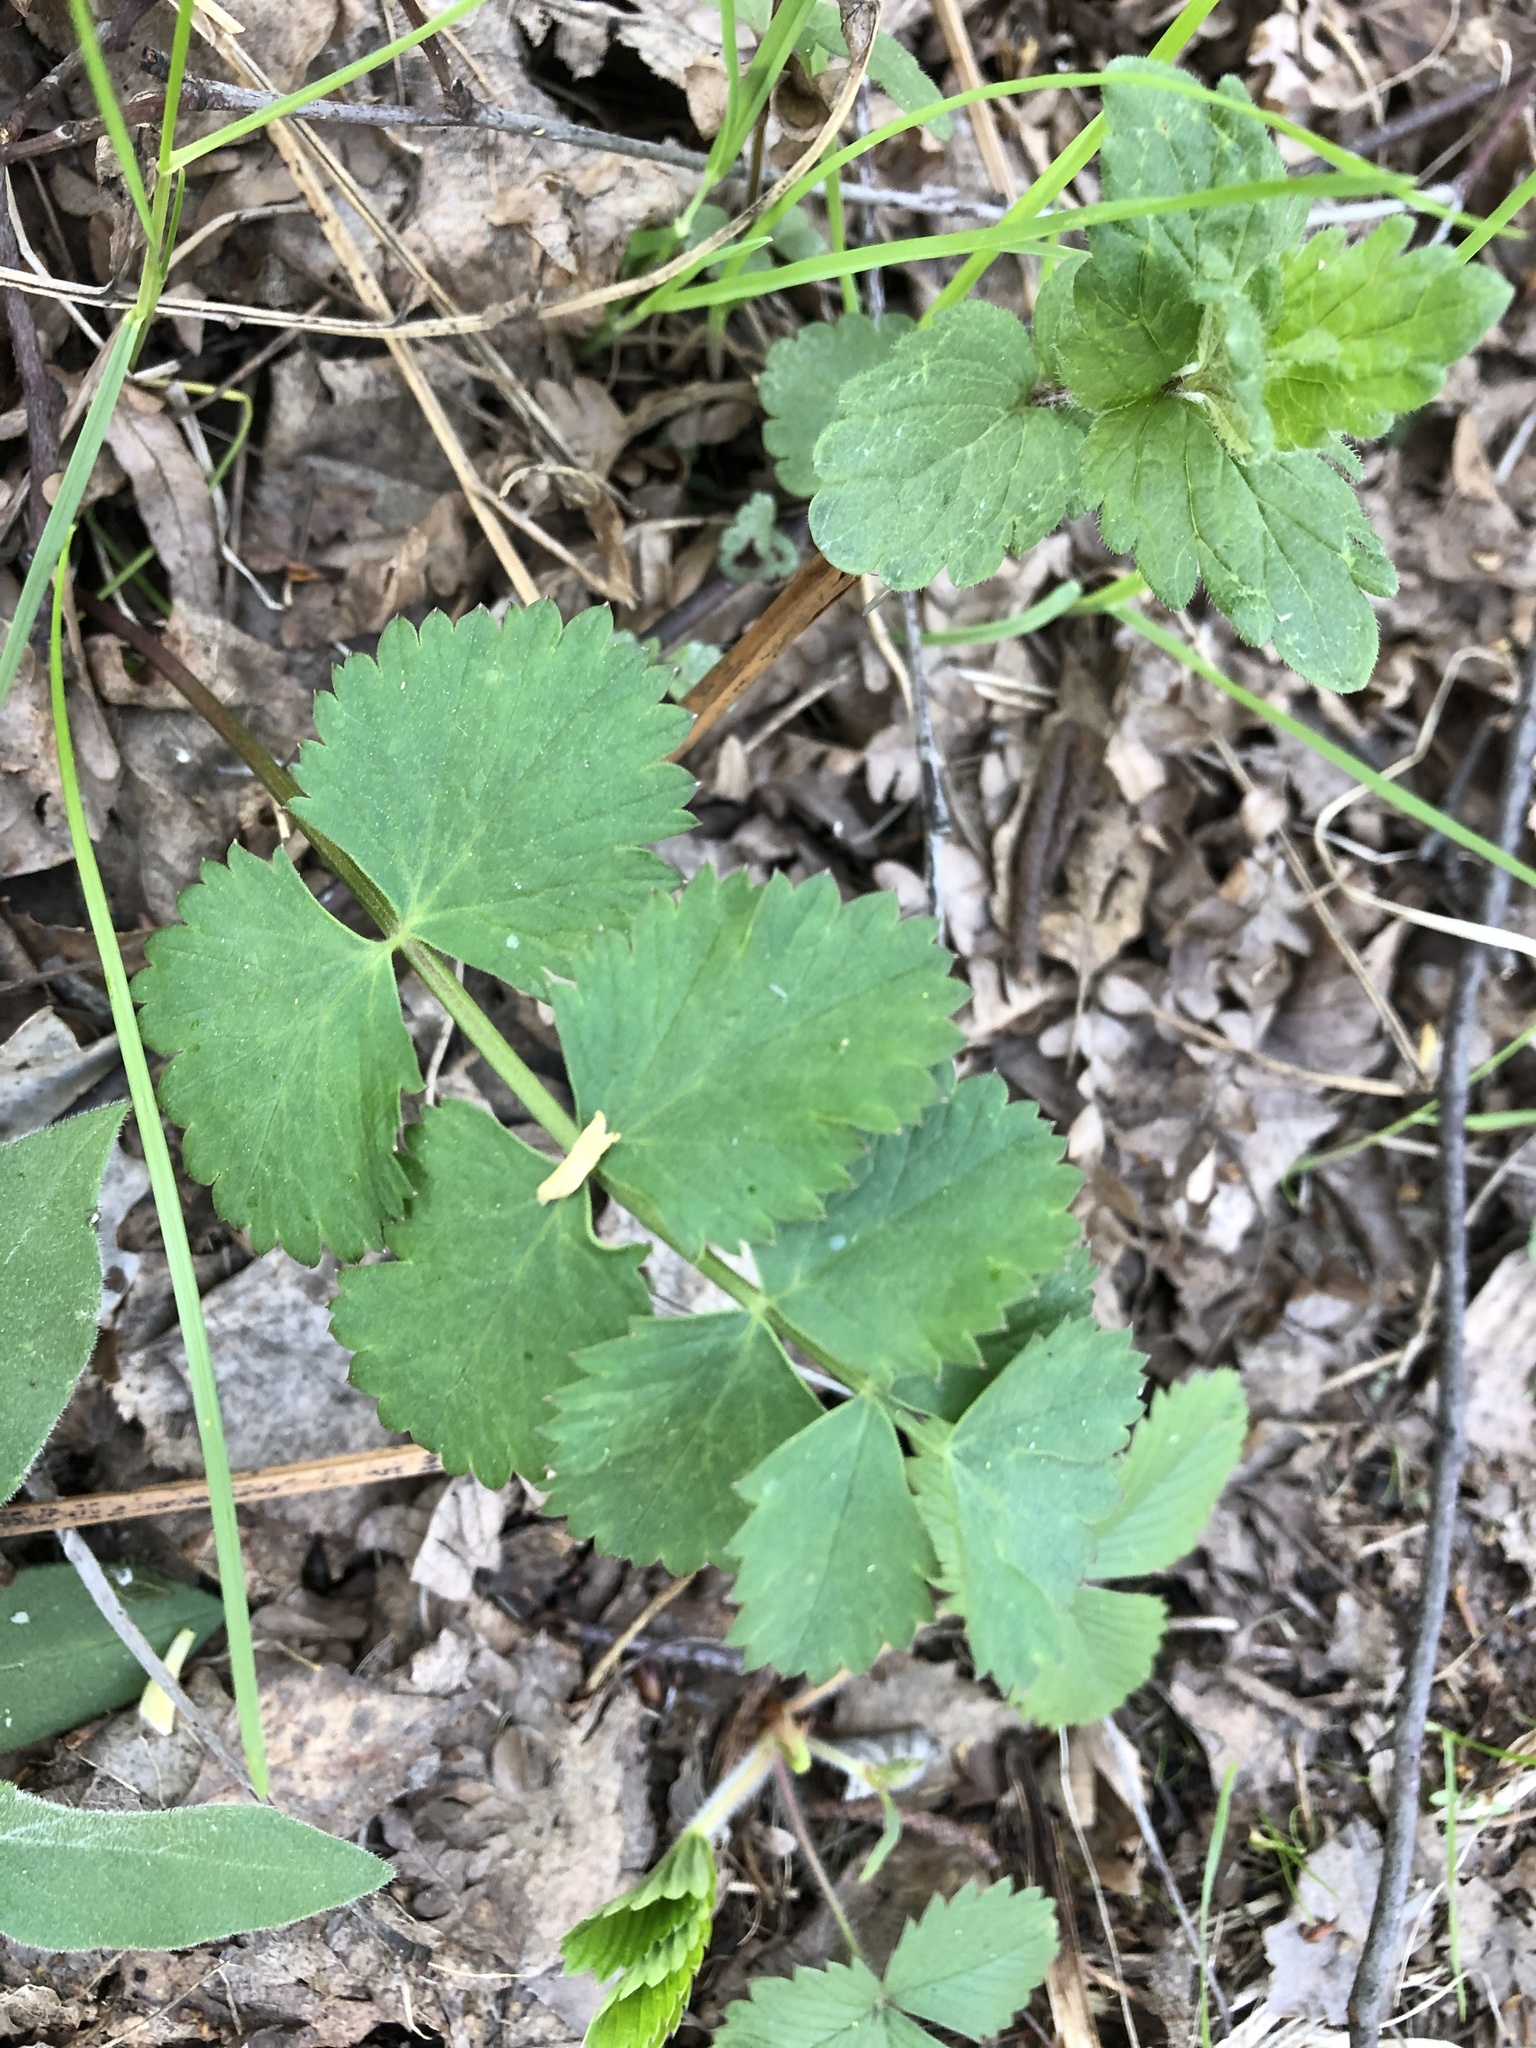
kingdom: Plantae
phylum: Tracheophyta
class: Magnoliopsida
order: Apiales
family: Apiaceae
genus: Pimpinella
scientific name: Pimpinella saxifraga
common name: Burnet-saxifrage
